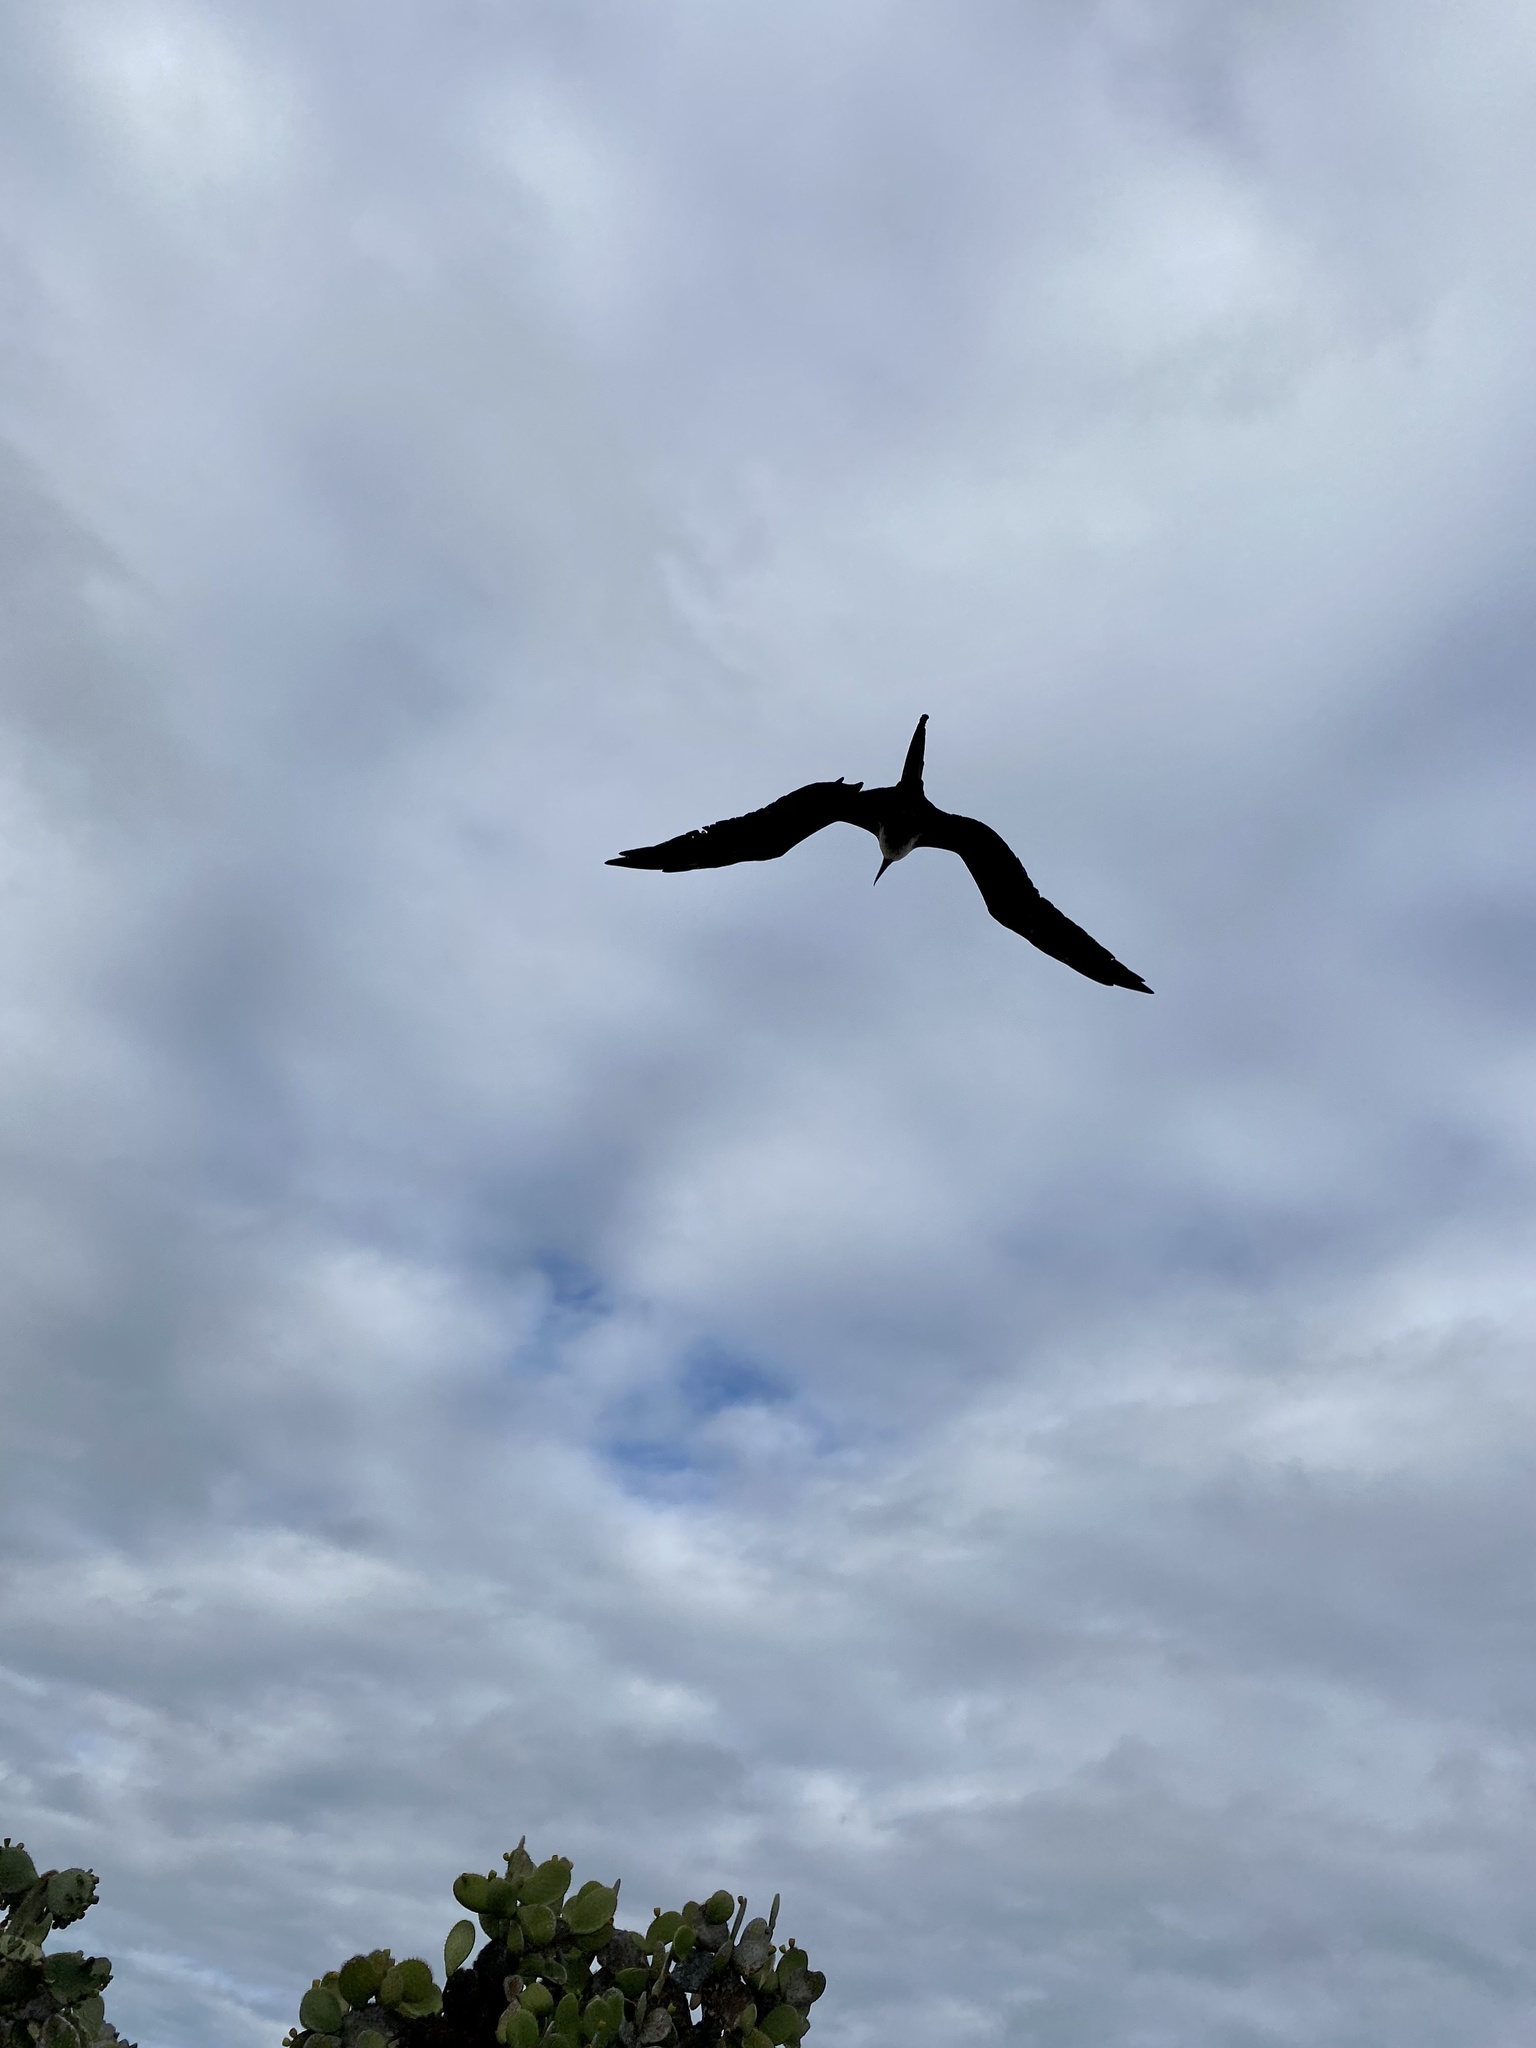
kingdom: Animalia
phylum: Chordata
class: Aves
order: Suliformes
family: Fregatidae
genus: Fregata
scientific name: Fregata magnificens
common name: Magnificent frigatebird
